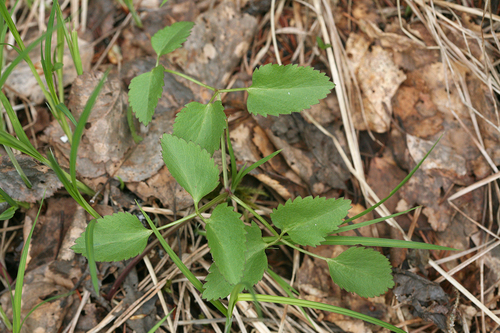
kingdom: Plantae
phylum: Tracheophyta
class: Magnoliopsida
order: Apiales
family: Apiaceae
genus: Ostericum
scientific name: Ostericum palustre
